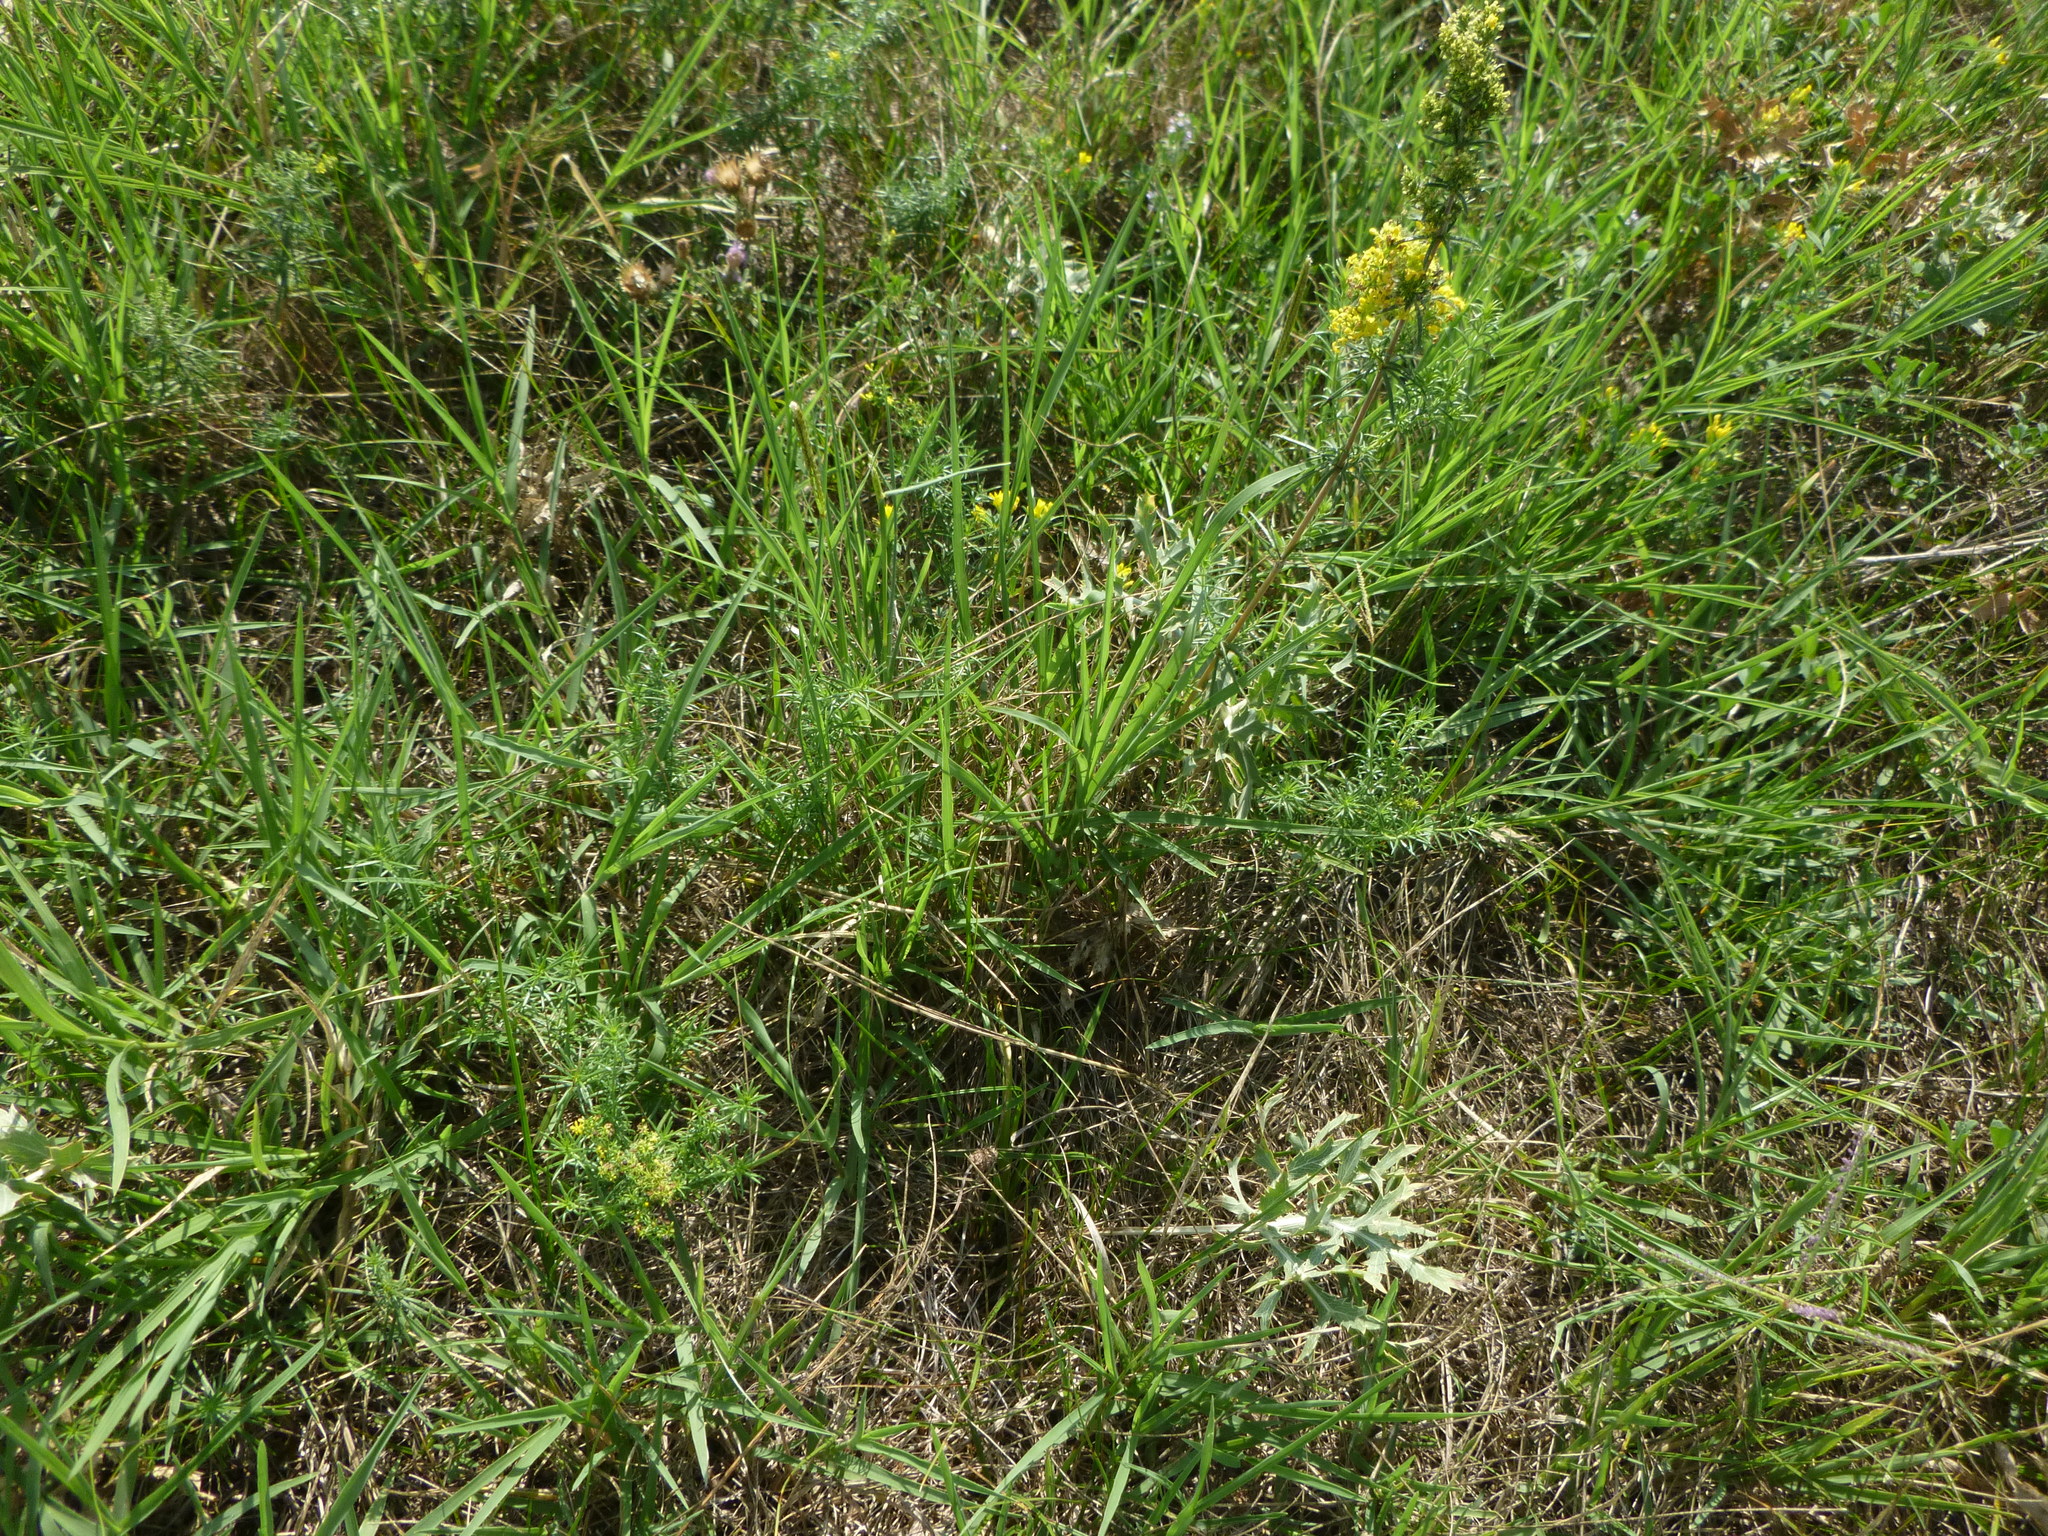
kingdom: Plantae
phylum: Tracheophyta
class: Magnoliopsida
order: Gentianales
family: Rubiaceae
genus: Galium
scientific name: Galium verum
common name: Lady's bedstraw
